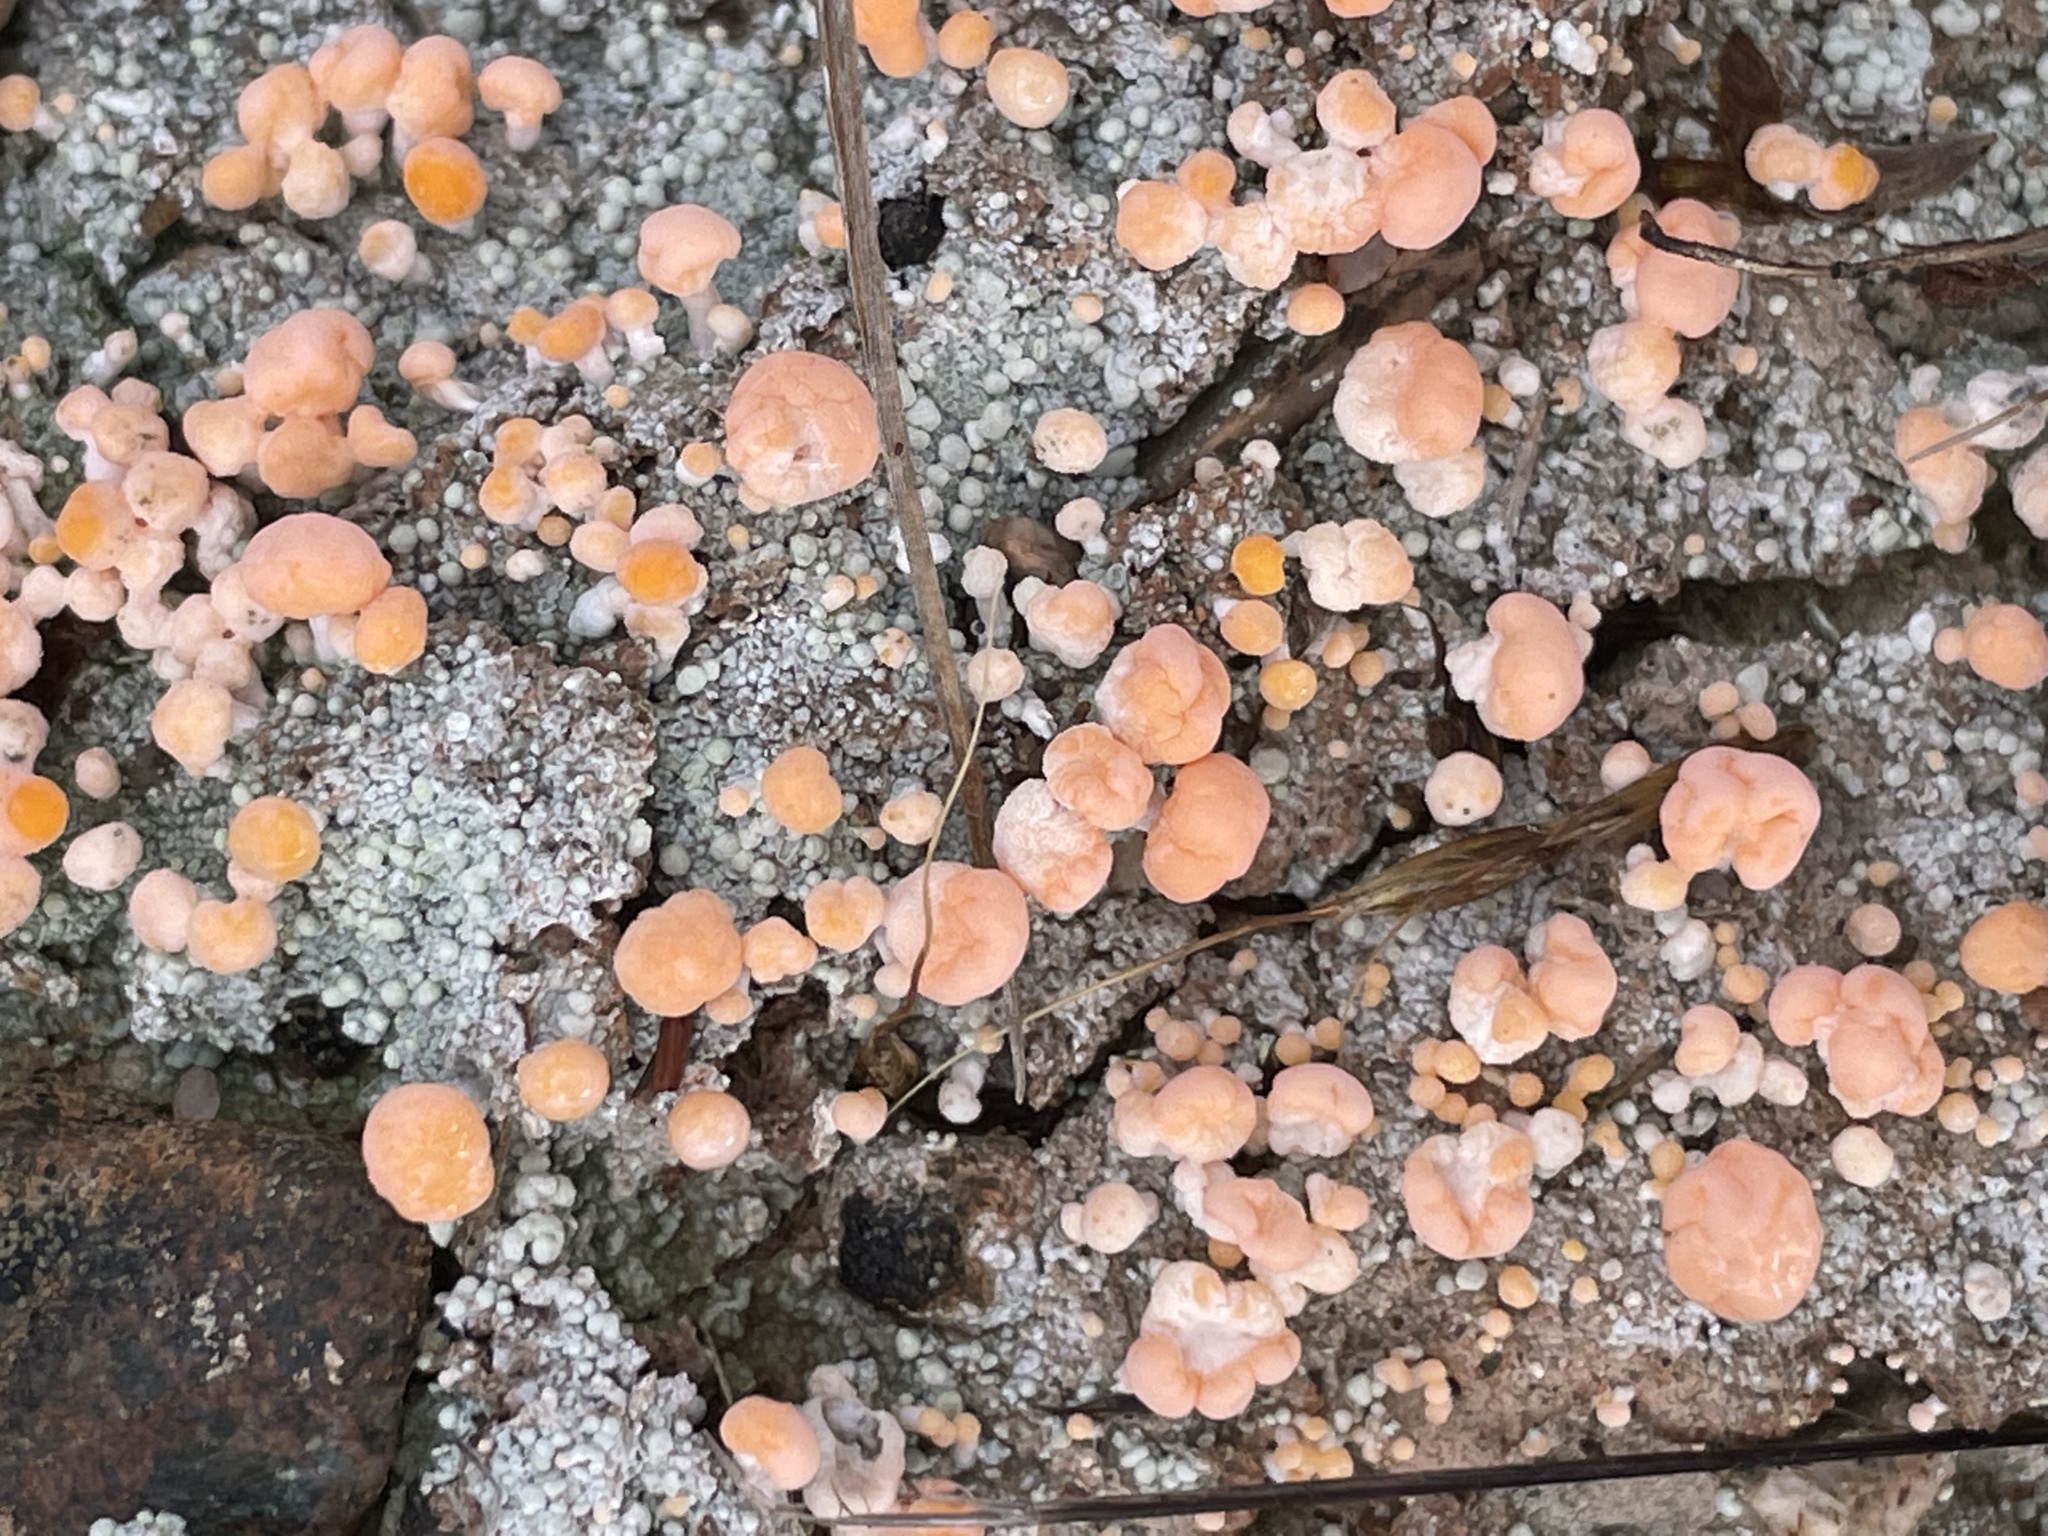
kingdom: Fungi
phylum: Ascomycota
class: Lecanoromycetes
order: Pertusariales
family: Icmadophilaceae
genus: Dibaeis
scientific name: Dibaeis baeomyces
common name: Pink earth lichen
